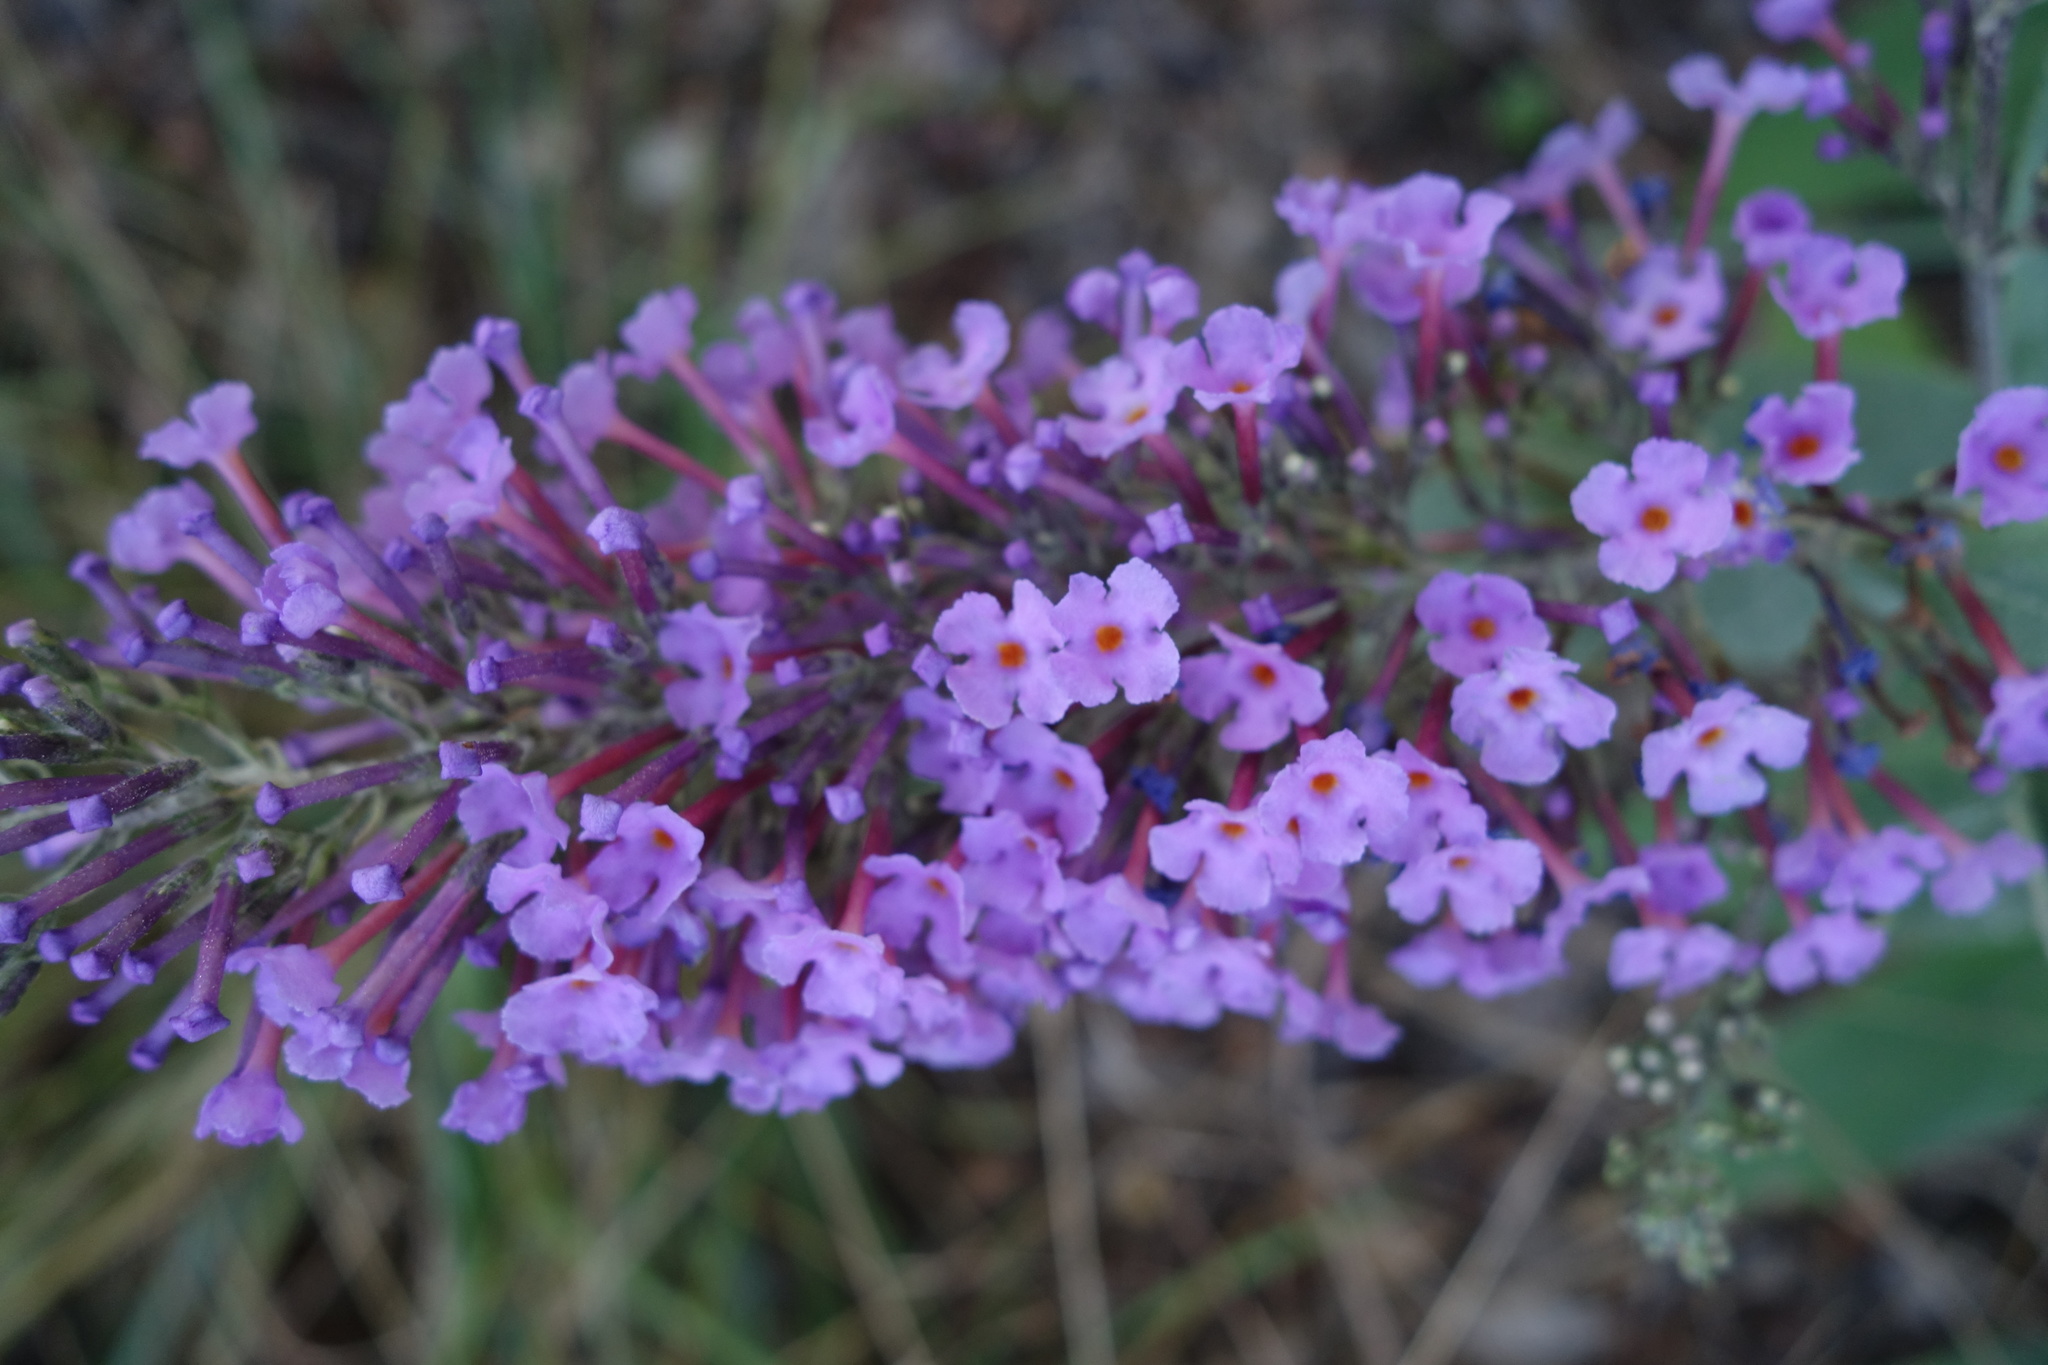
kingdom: Plantae
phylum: Tracheophyta
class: Magnoliopsida
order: Lamiales
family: Scrophulariaceae
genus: Buddleja
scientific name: Buddleja davidii
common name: Butterfly-bush
